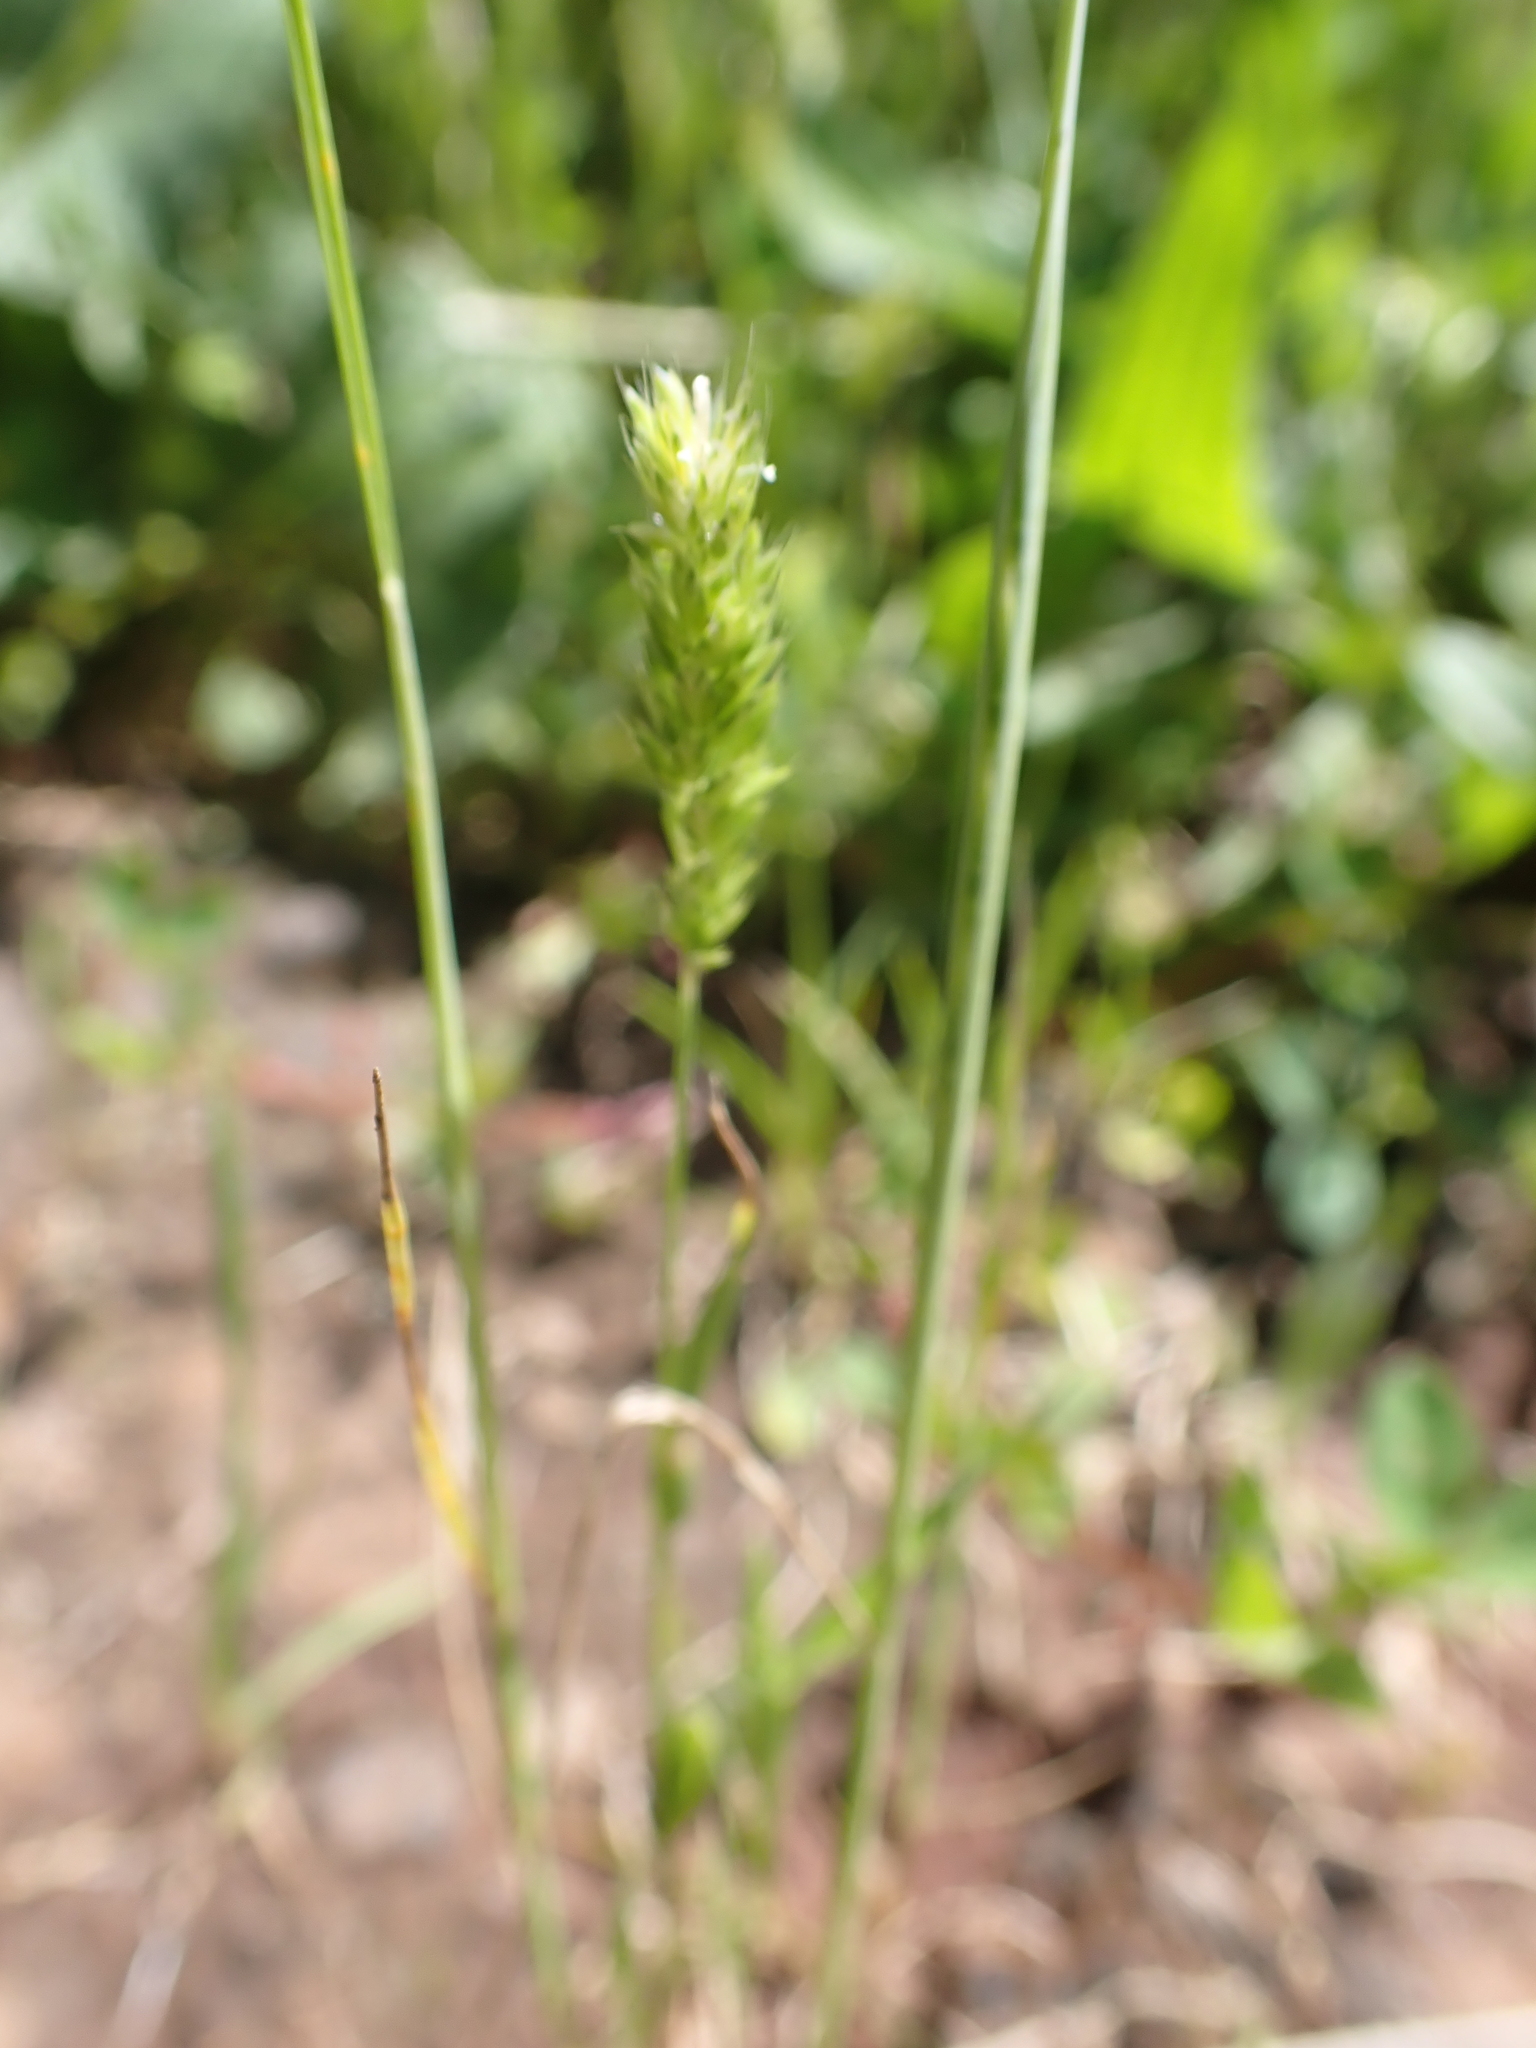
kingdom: Plantae
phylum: Tracheophyta
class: Liliopsida
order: Poales
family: Poaceae
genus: Rostraria
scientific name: Rostraria cristata
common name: Mediterranean hair-grass
